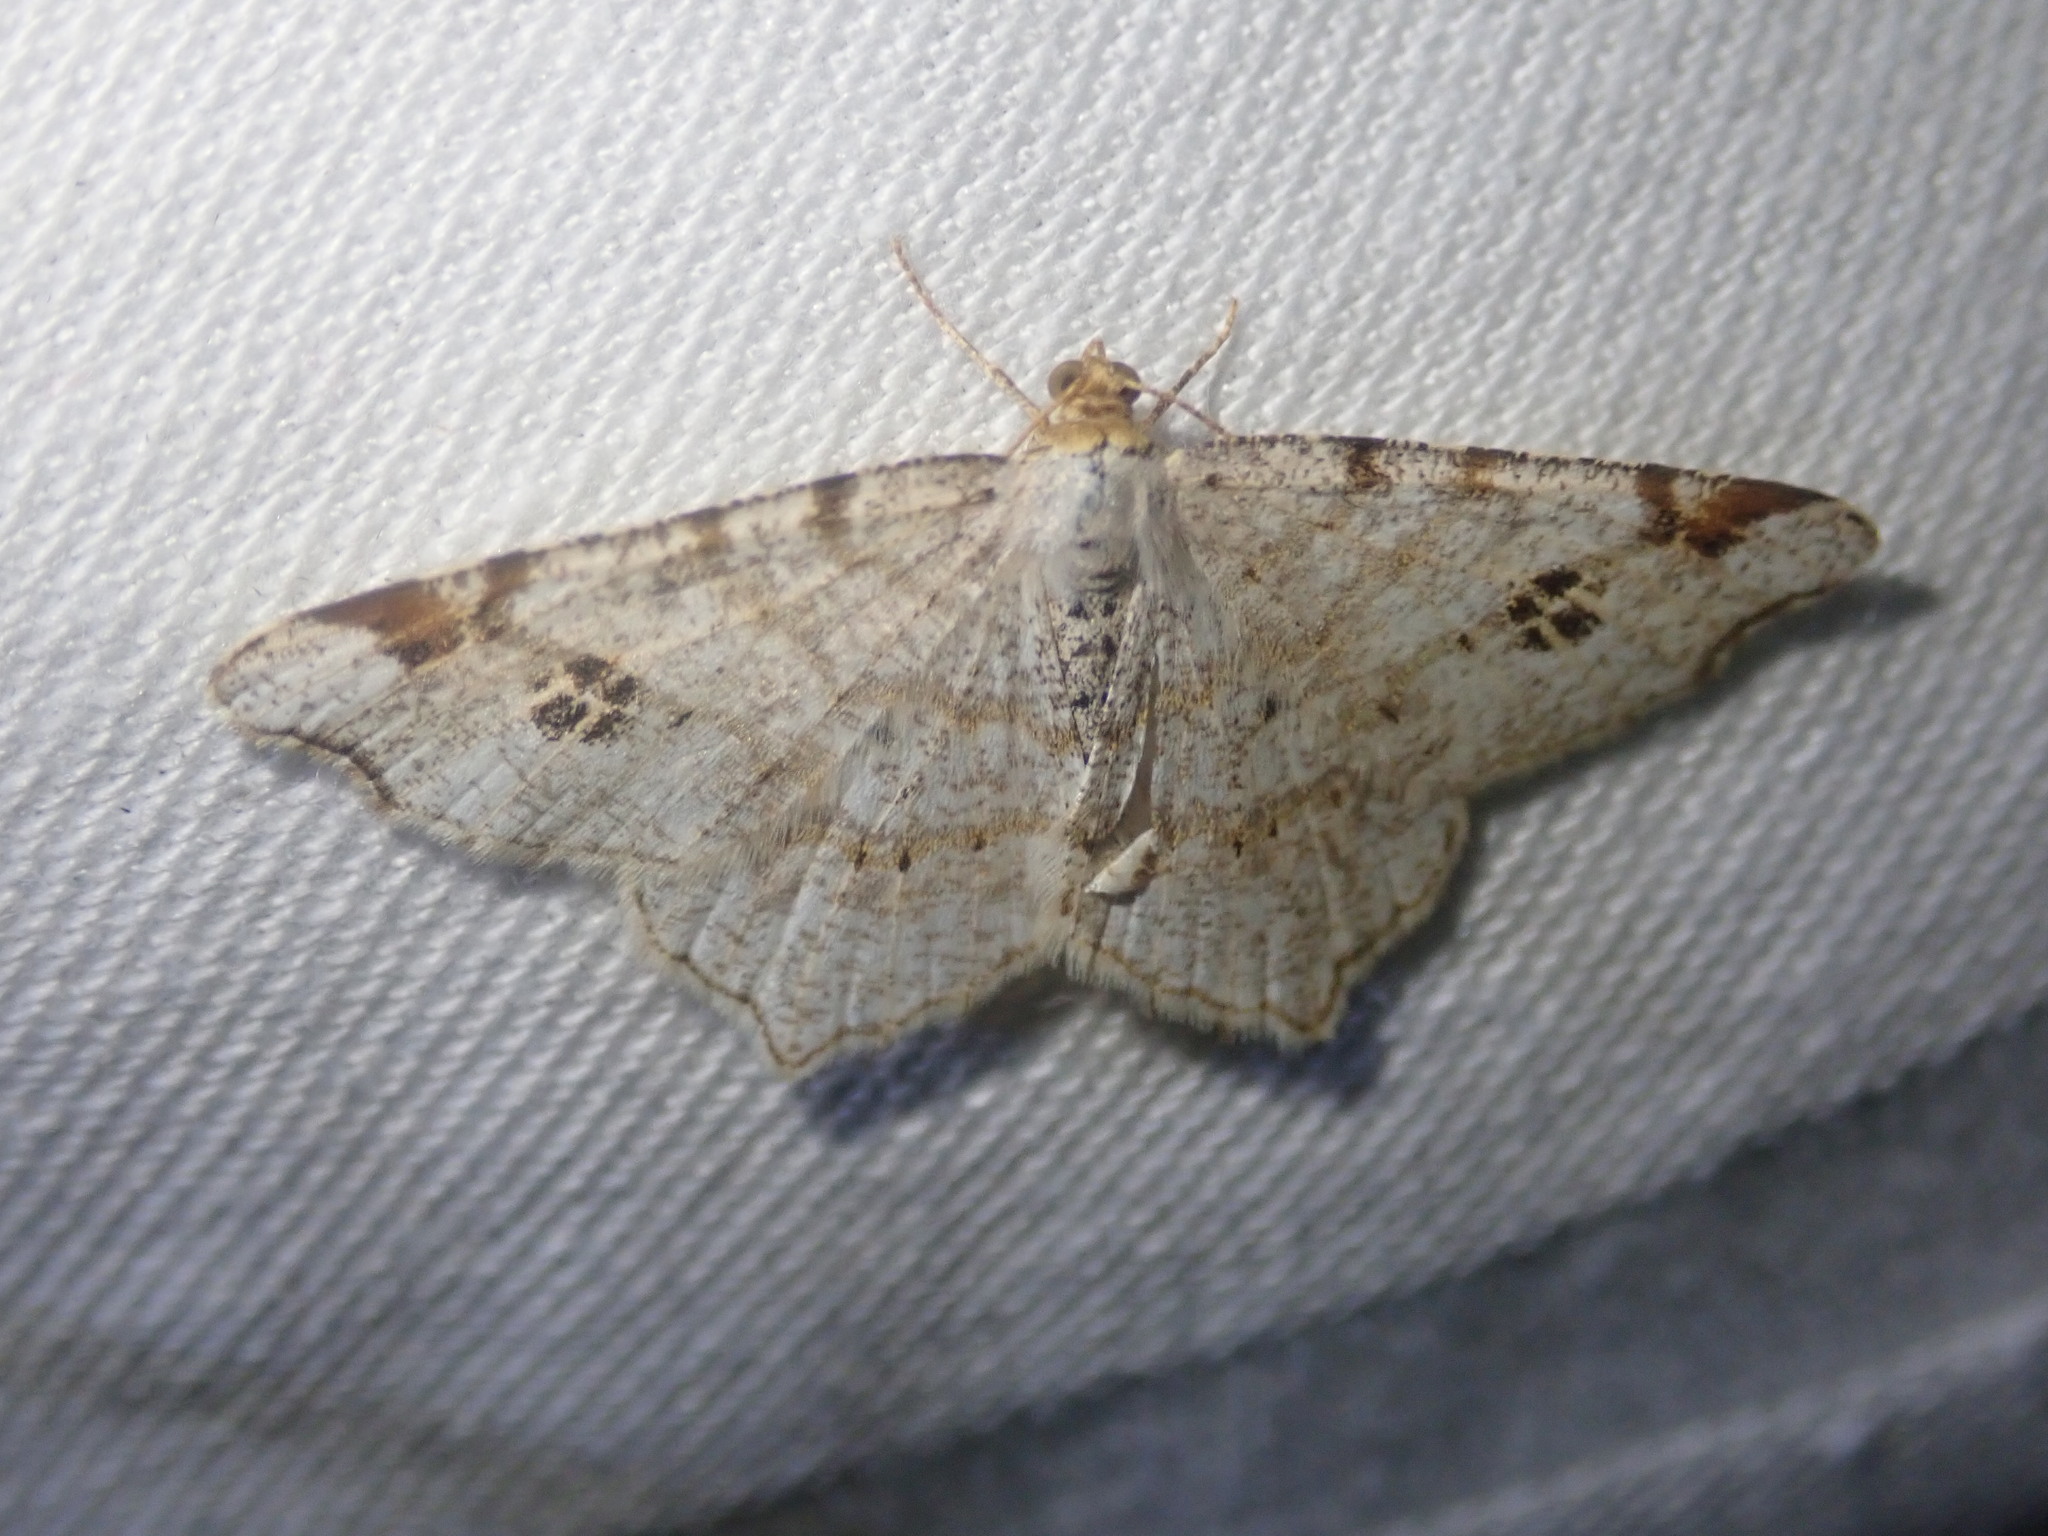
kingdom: Animalia
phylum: Arthropoda
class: Insecta
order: Lepidoptera
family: Geometridae
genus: Macaria
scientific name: Macaria notata
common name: Peacock moth
